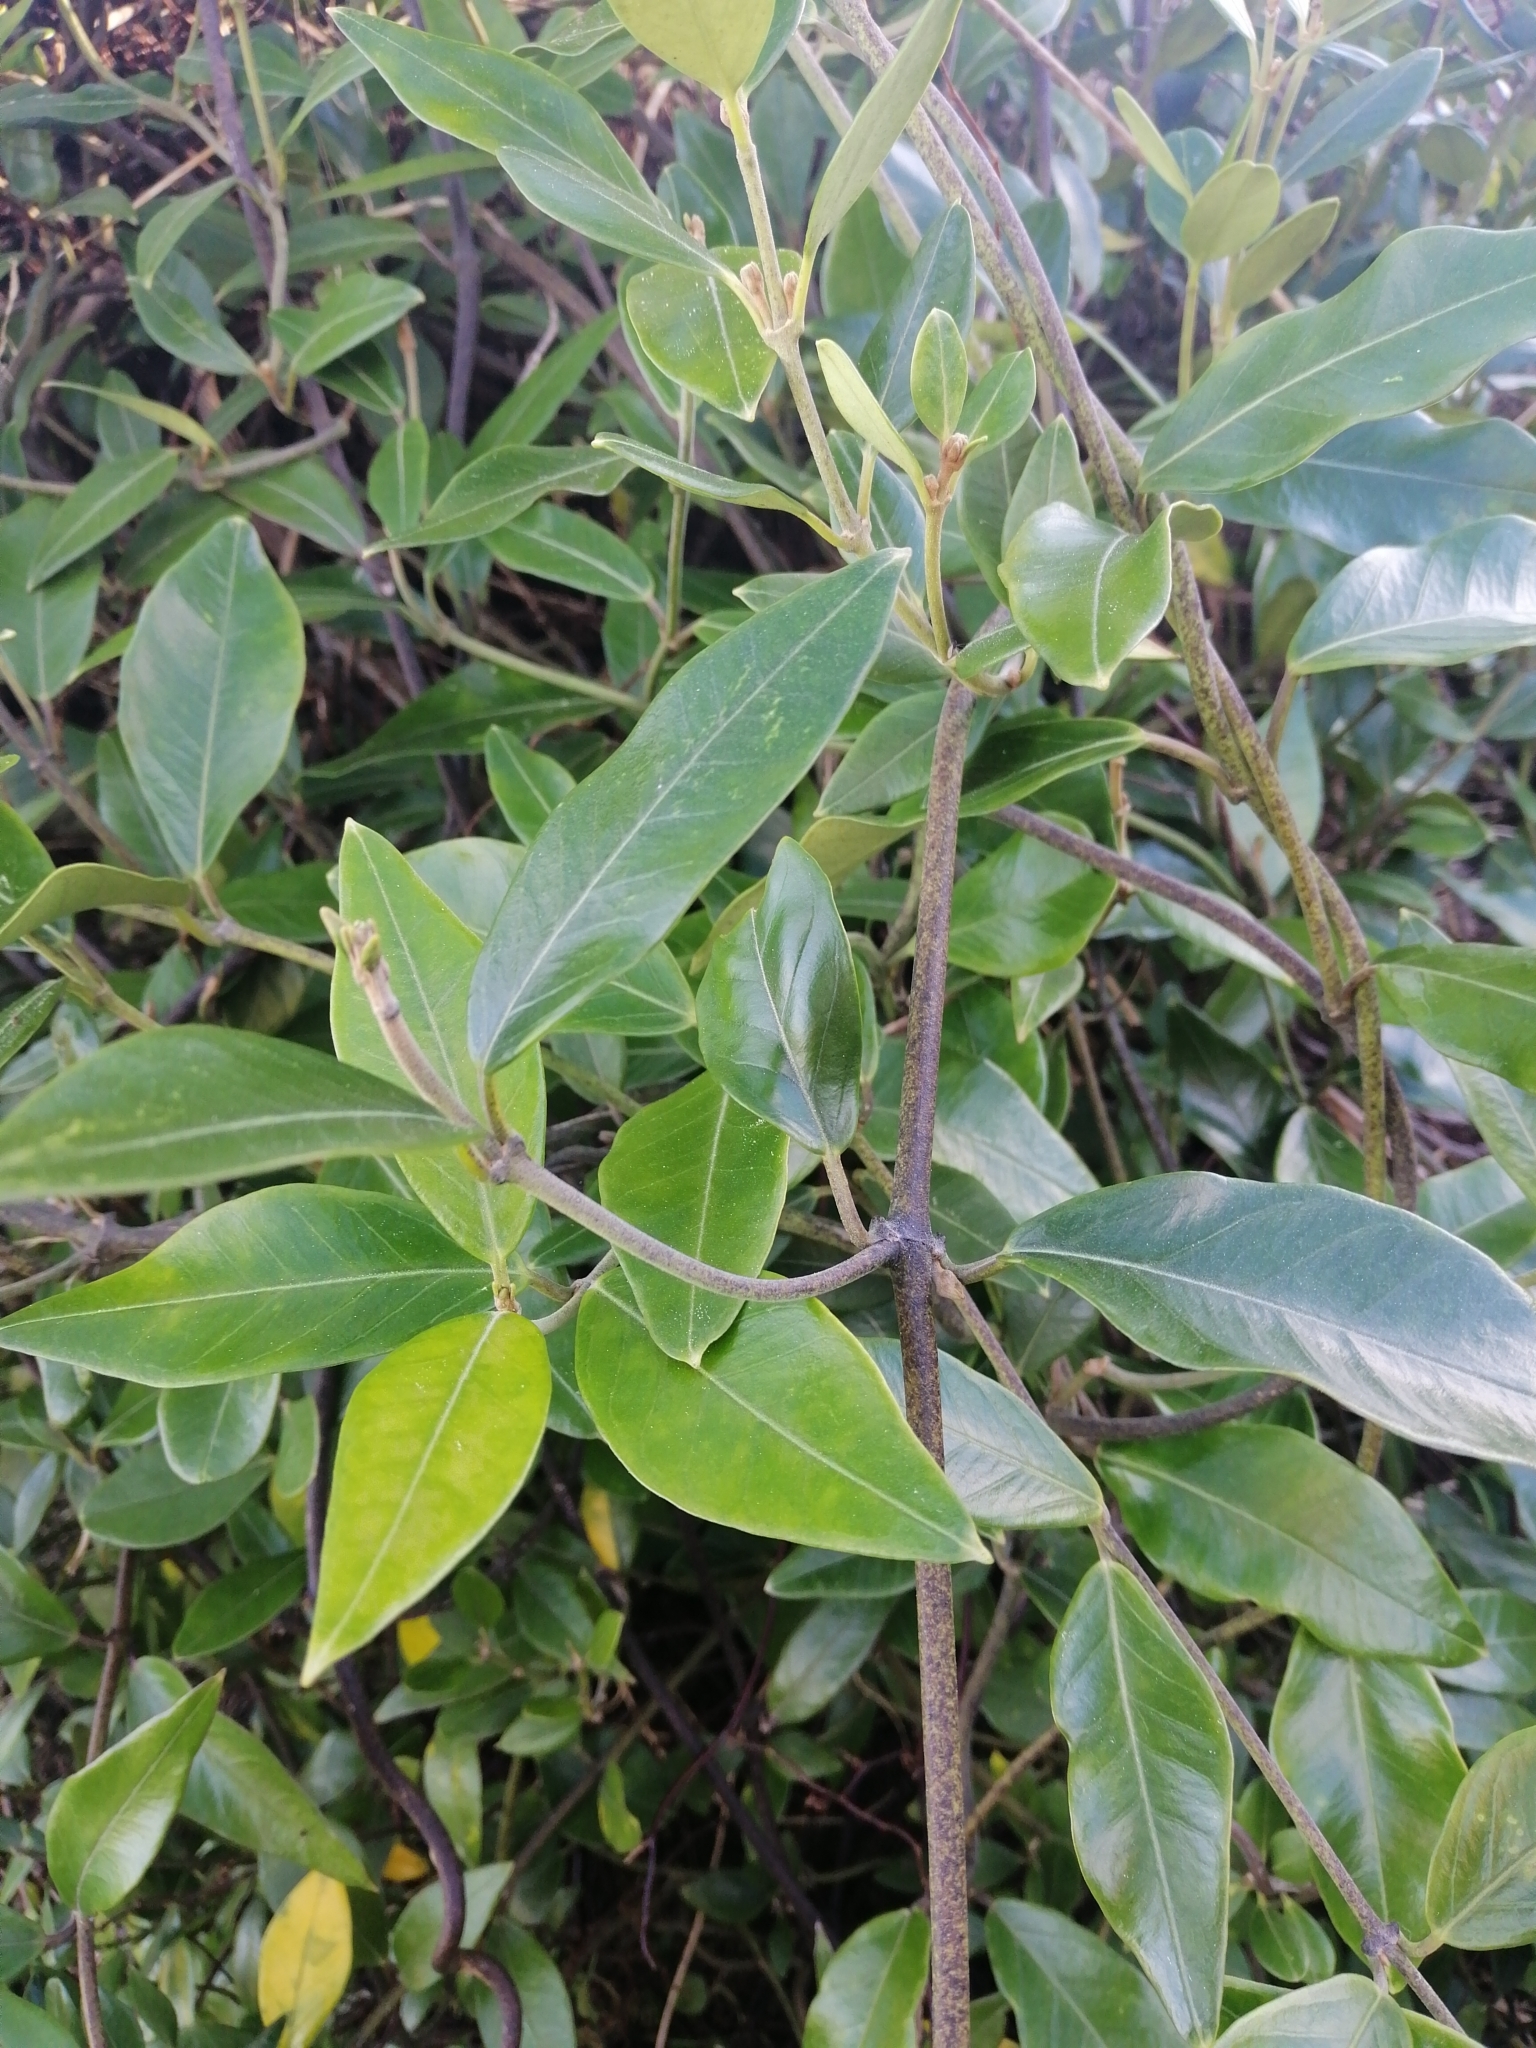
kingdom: Plantae
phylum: Tracheophyta
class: Magnoliopsida
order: Gentianales
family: Apocynaceae
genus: Parsonsia
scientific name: Parsonsia heterophylla
